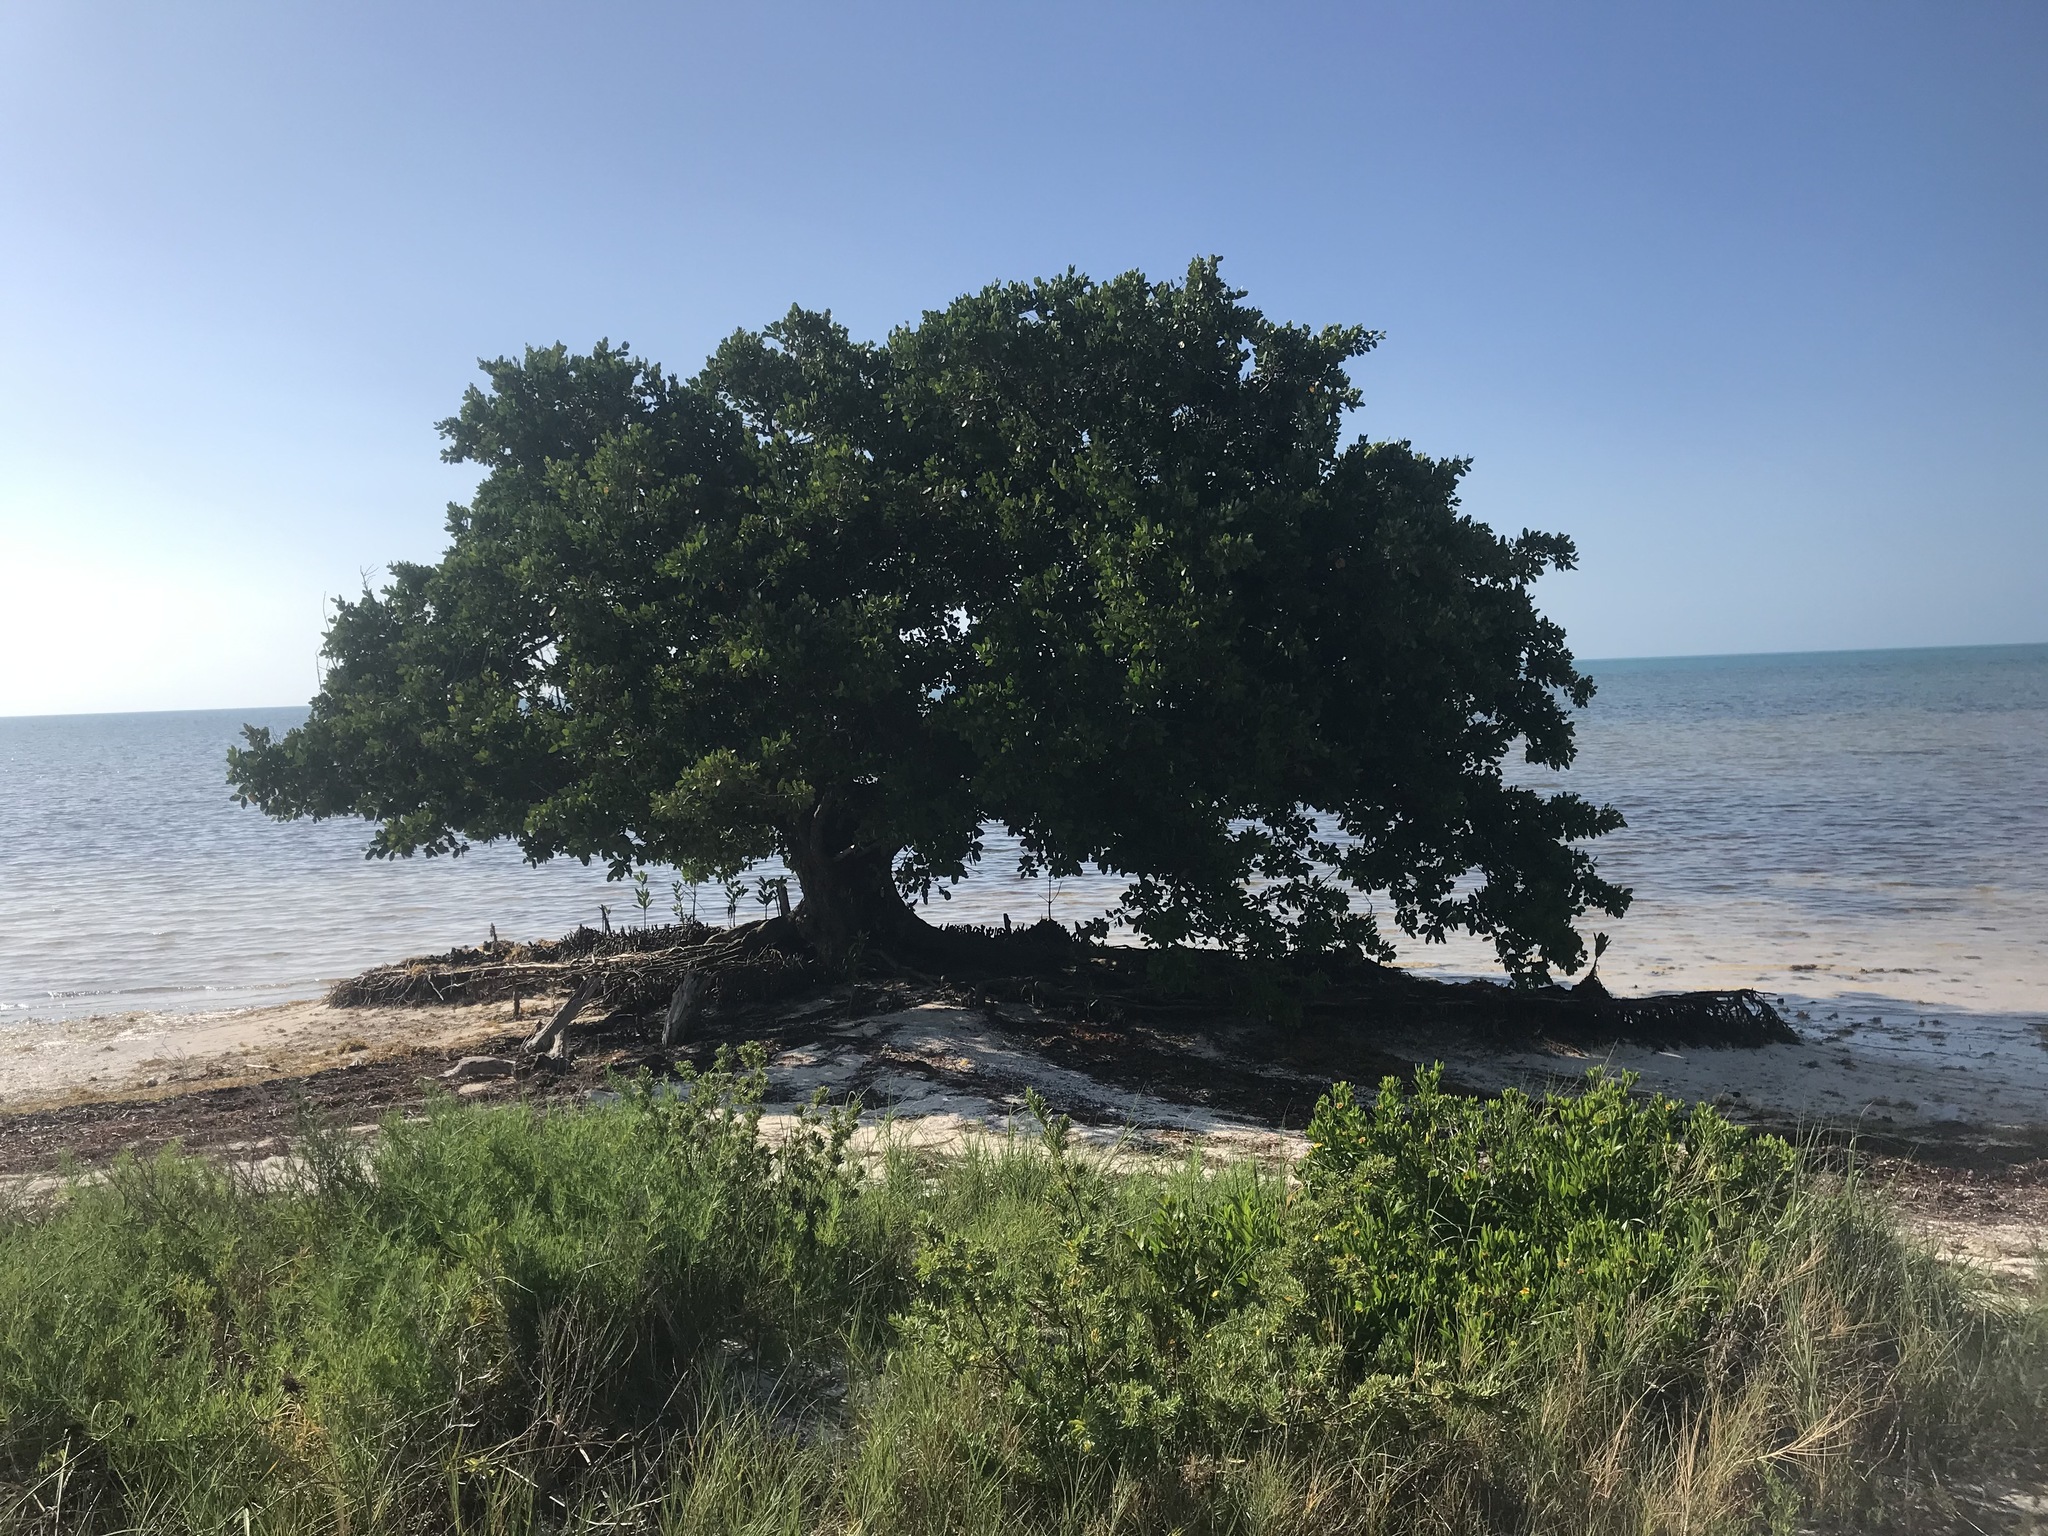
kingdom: Plantae
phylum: Tracheophyta
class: Magnoliopsida
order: Lamiales
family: Acanthaceae
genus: Avicennia
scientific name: Avicennia germinans
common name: Black mangrove
